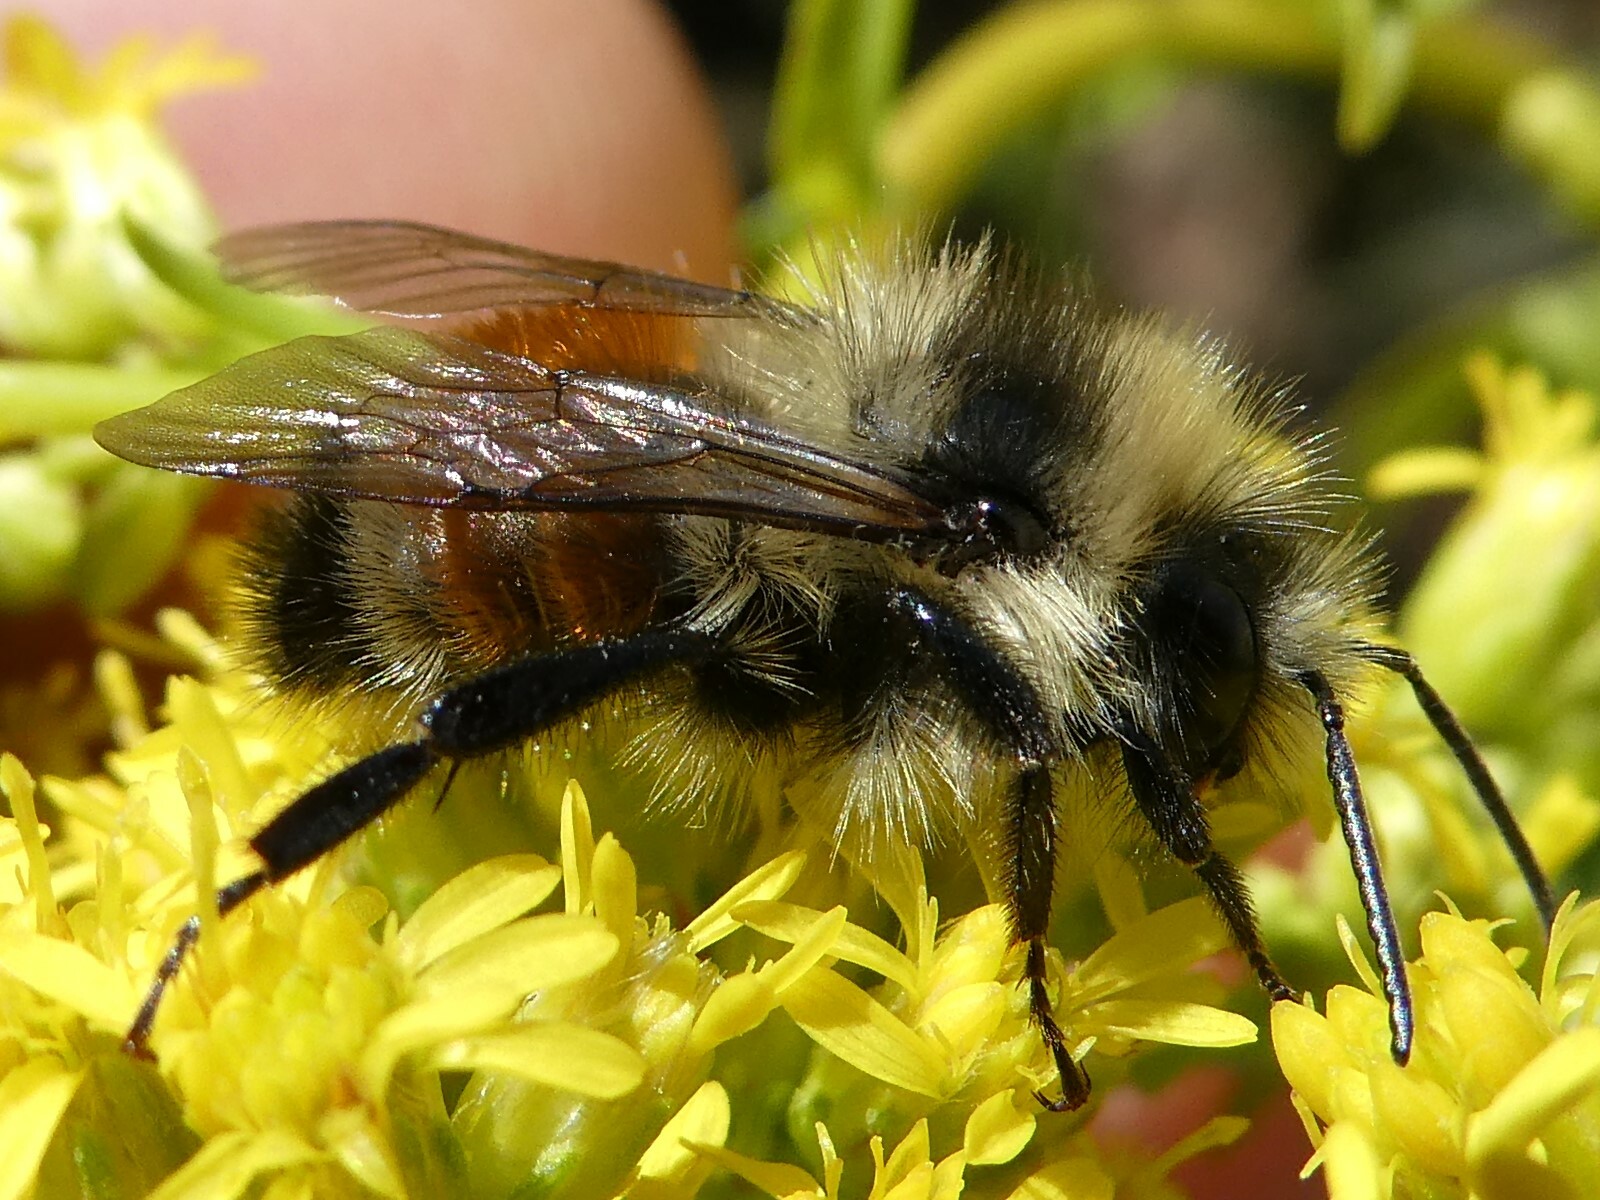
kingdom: Animalia
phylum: Arthropoda
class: Insecta
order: Hymenoptera
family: Apidae
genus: Bombus
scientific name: Bombus ternarius
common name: Tri-colored bumble bee
